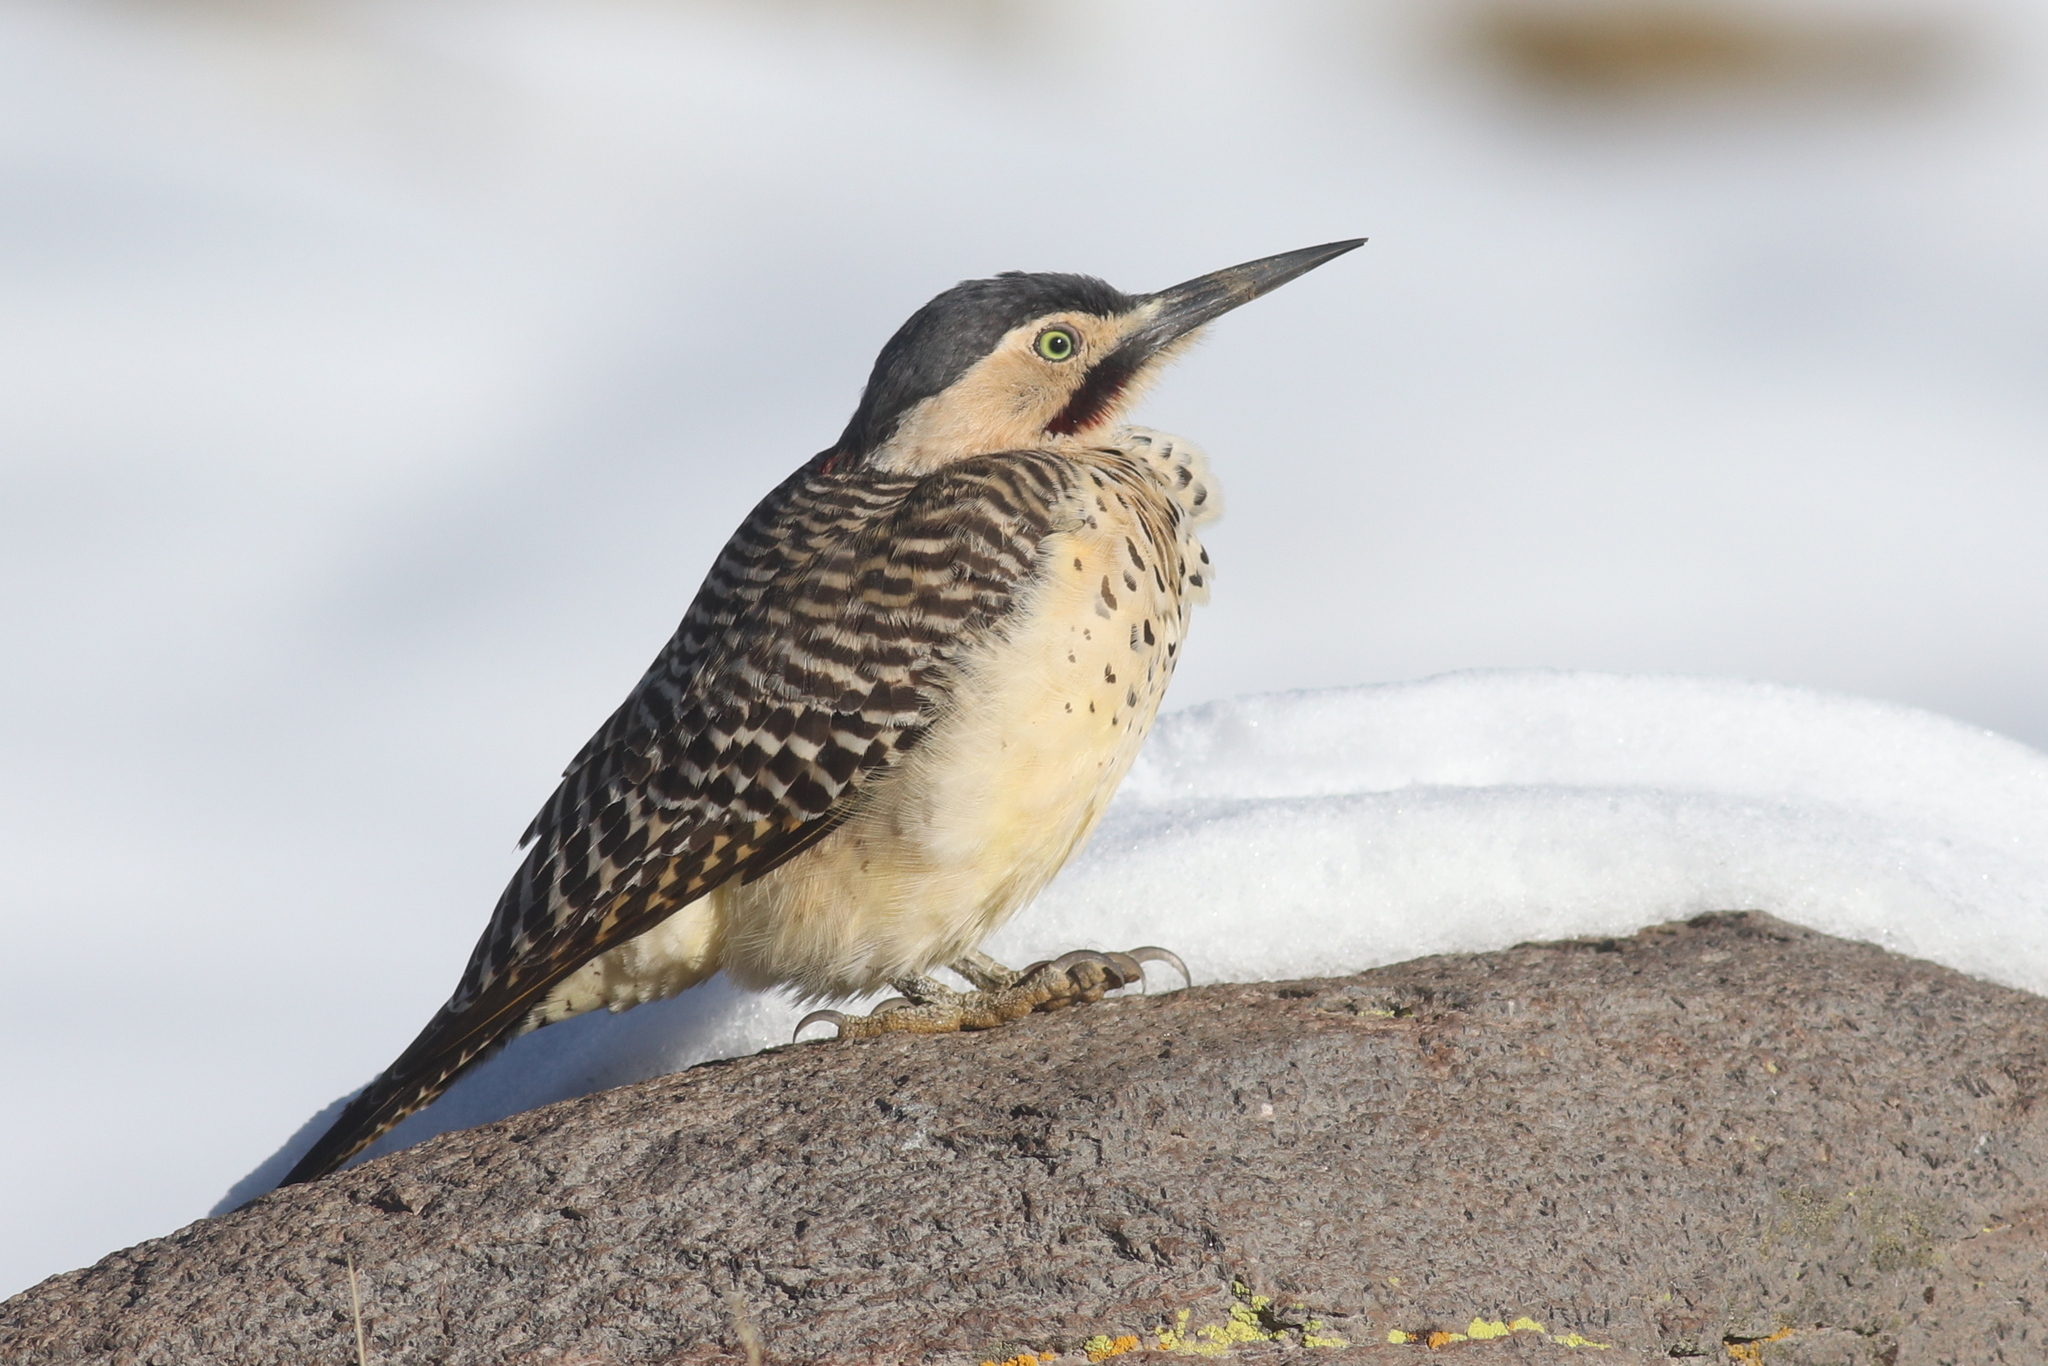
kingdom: Animalia
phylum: Chordata
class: Aves
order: Piciformes
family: Picidae
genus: Colaptes
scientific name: Colaptes rupicola
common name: Andean flicker
